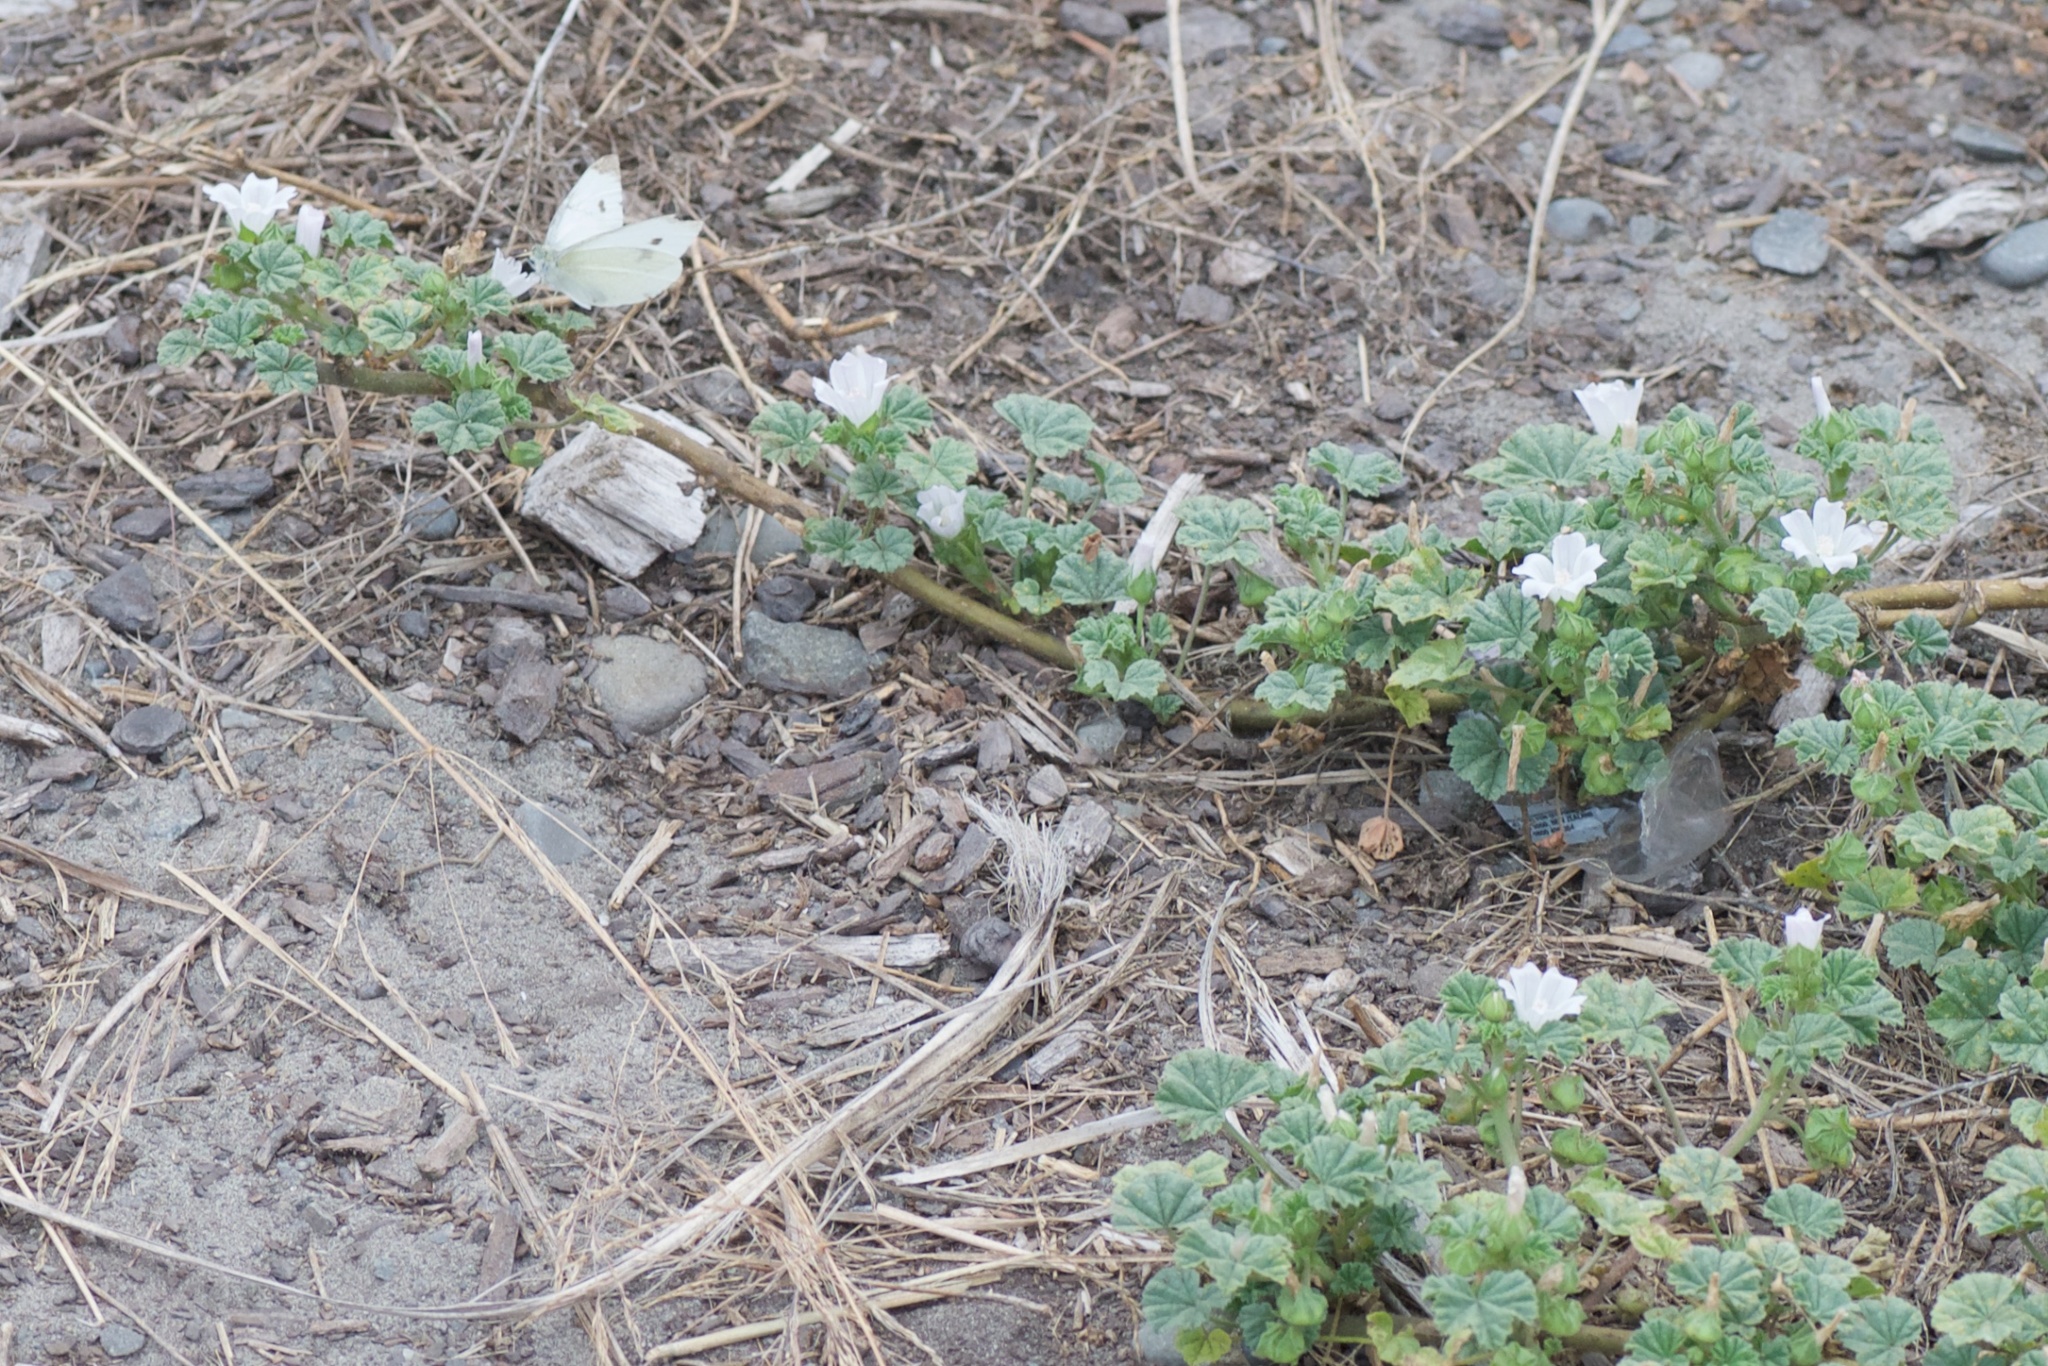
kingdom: Animalia
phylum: Arthropoda
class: Insecta
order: Lepidoptera
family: Pieridae
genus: Pieris
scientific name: Pieris rapae
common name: Small white
